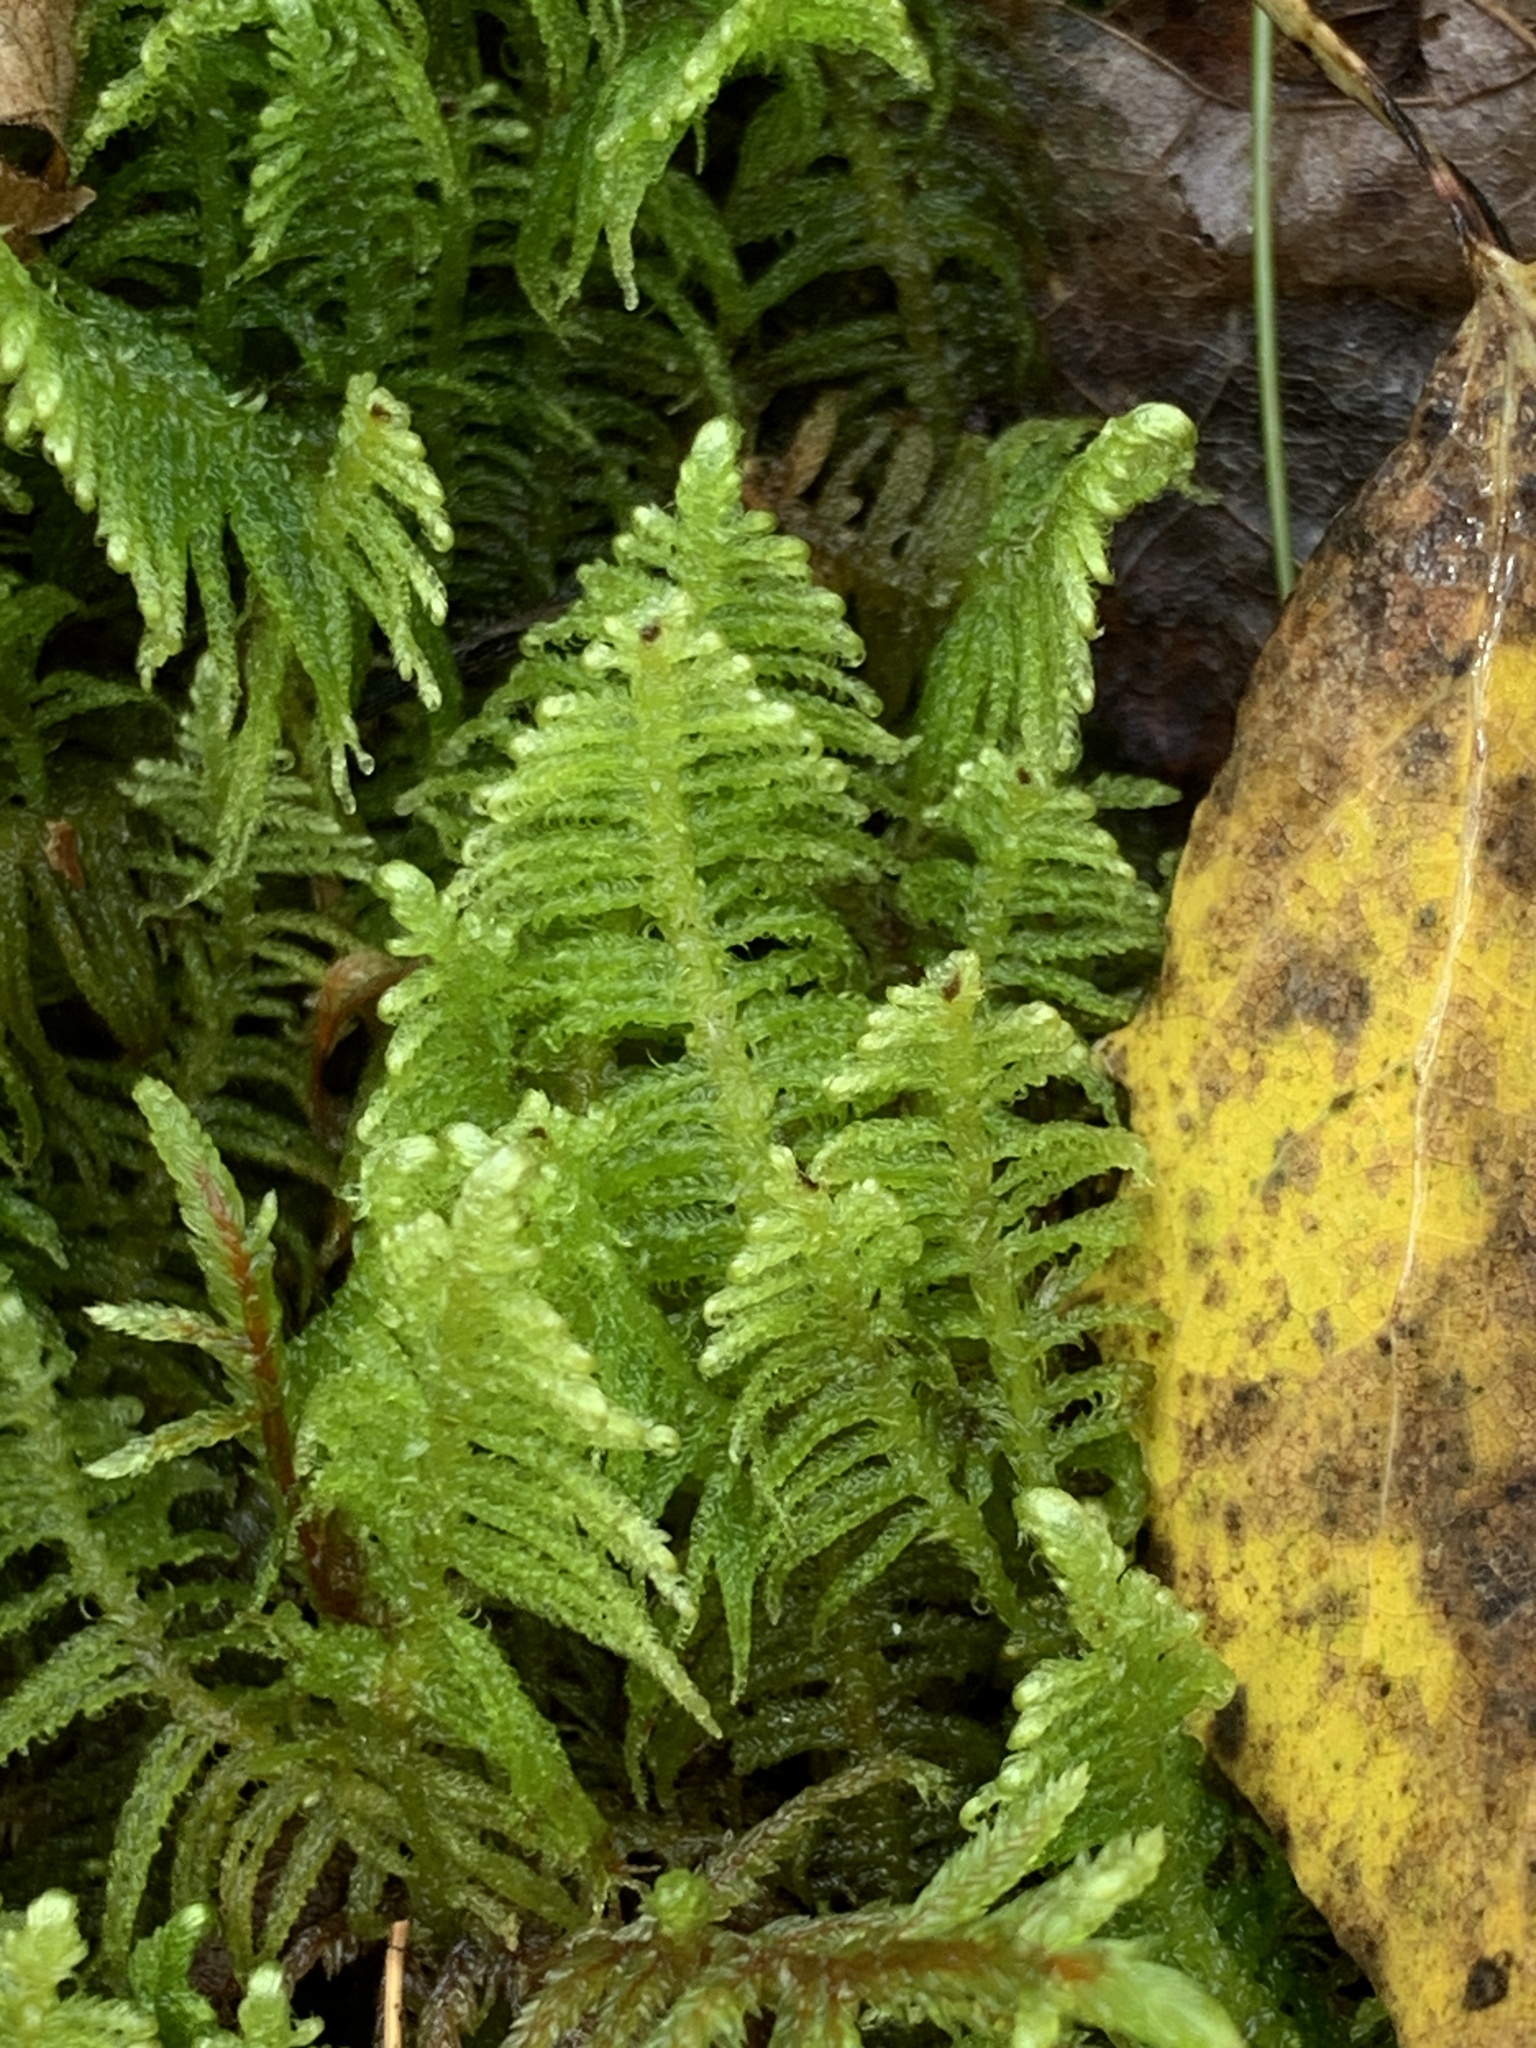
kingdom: Plantae
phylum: Bryophyta
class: Bryopsida
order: Hypnales
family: Pylaisiaceae
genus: Ptilium
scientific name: Ptilium crista-castrensis
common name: Knight's plume moss
